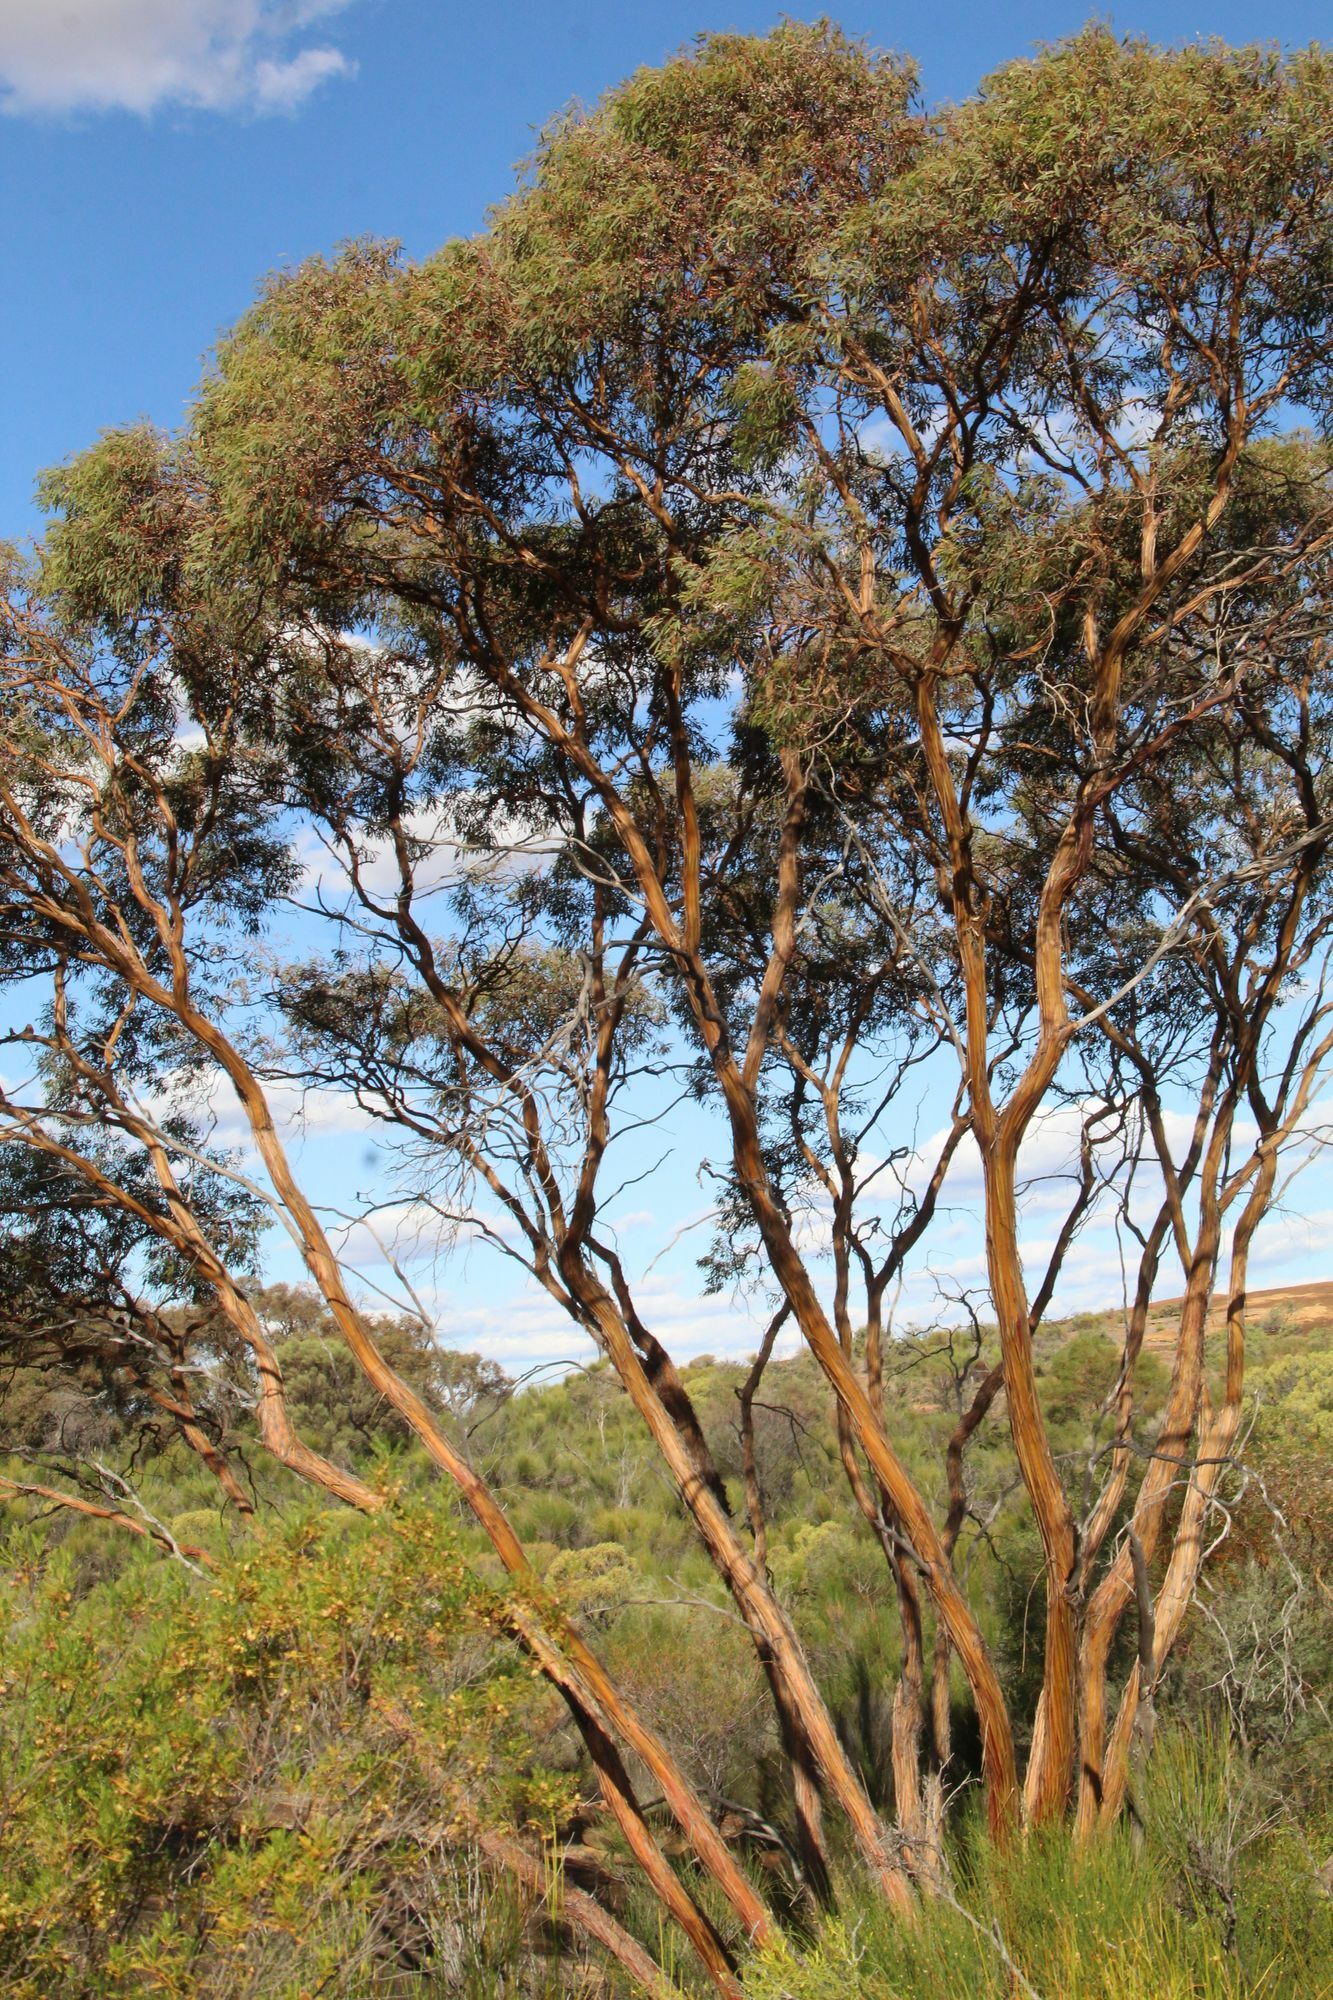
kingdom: Plantae
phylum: Tracheophyta
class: Magnoliopsida
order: Myrtales
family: Myrtaceae
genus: Eucalyptus
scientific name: Eucalyptus crucis
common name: Southern cross silver mallee
